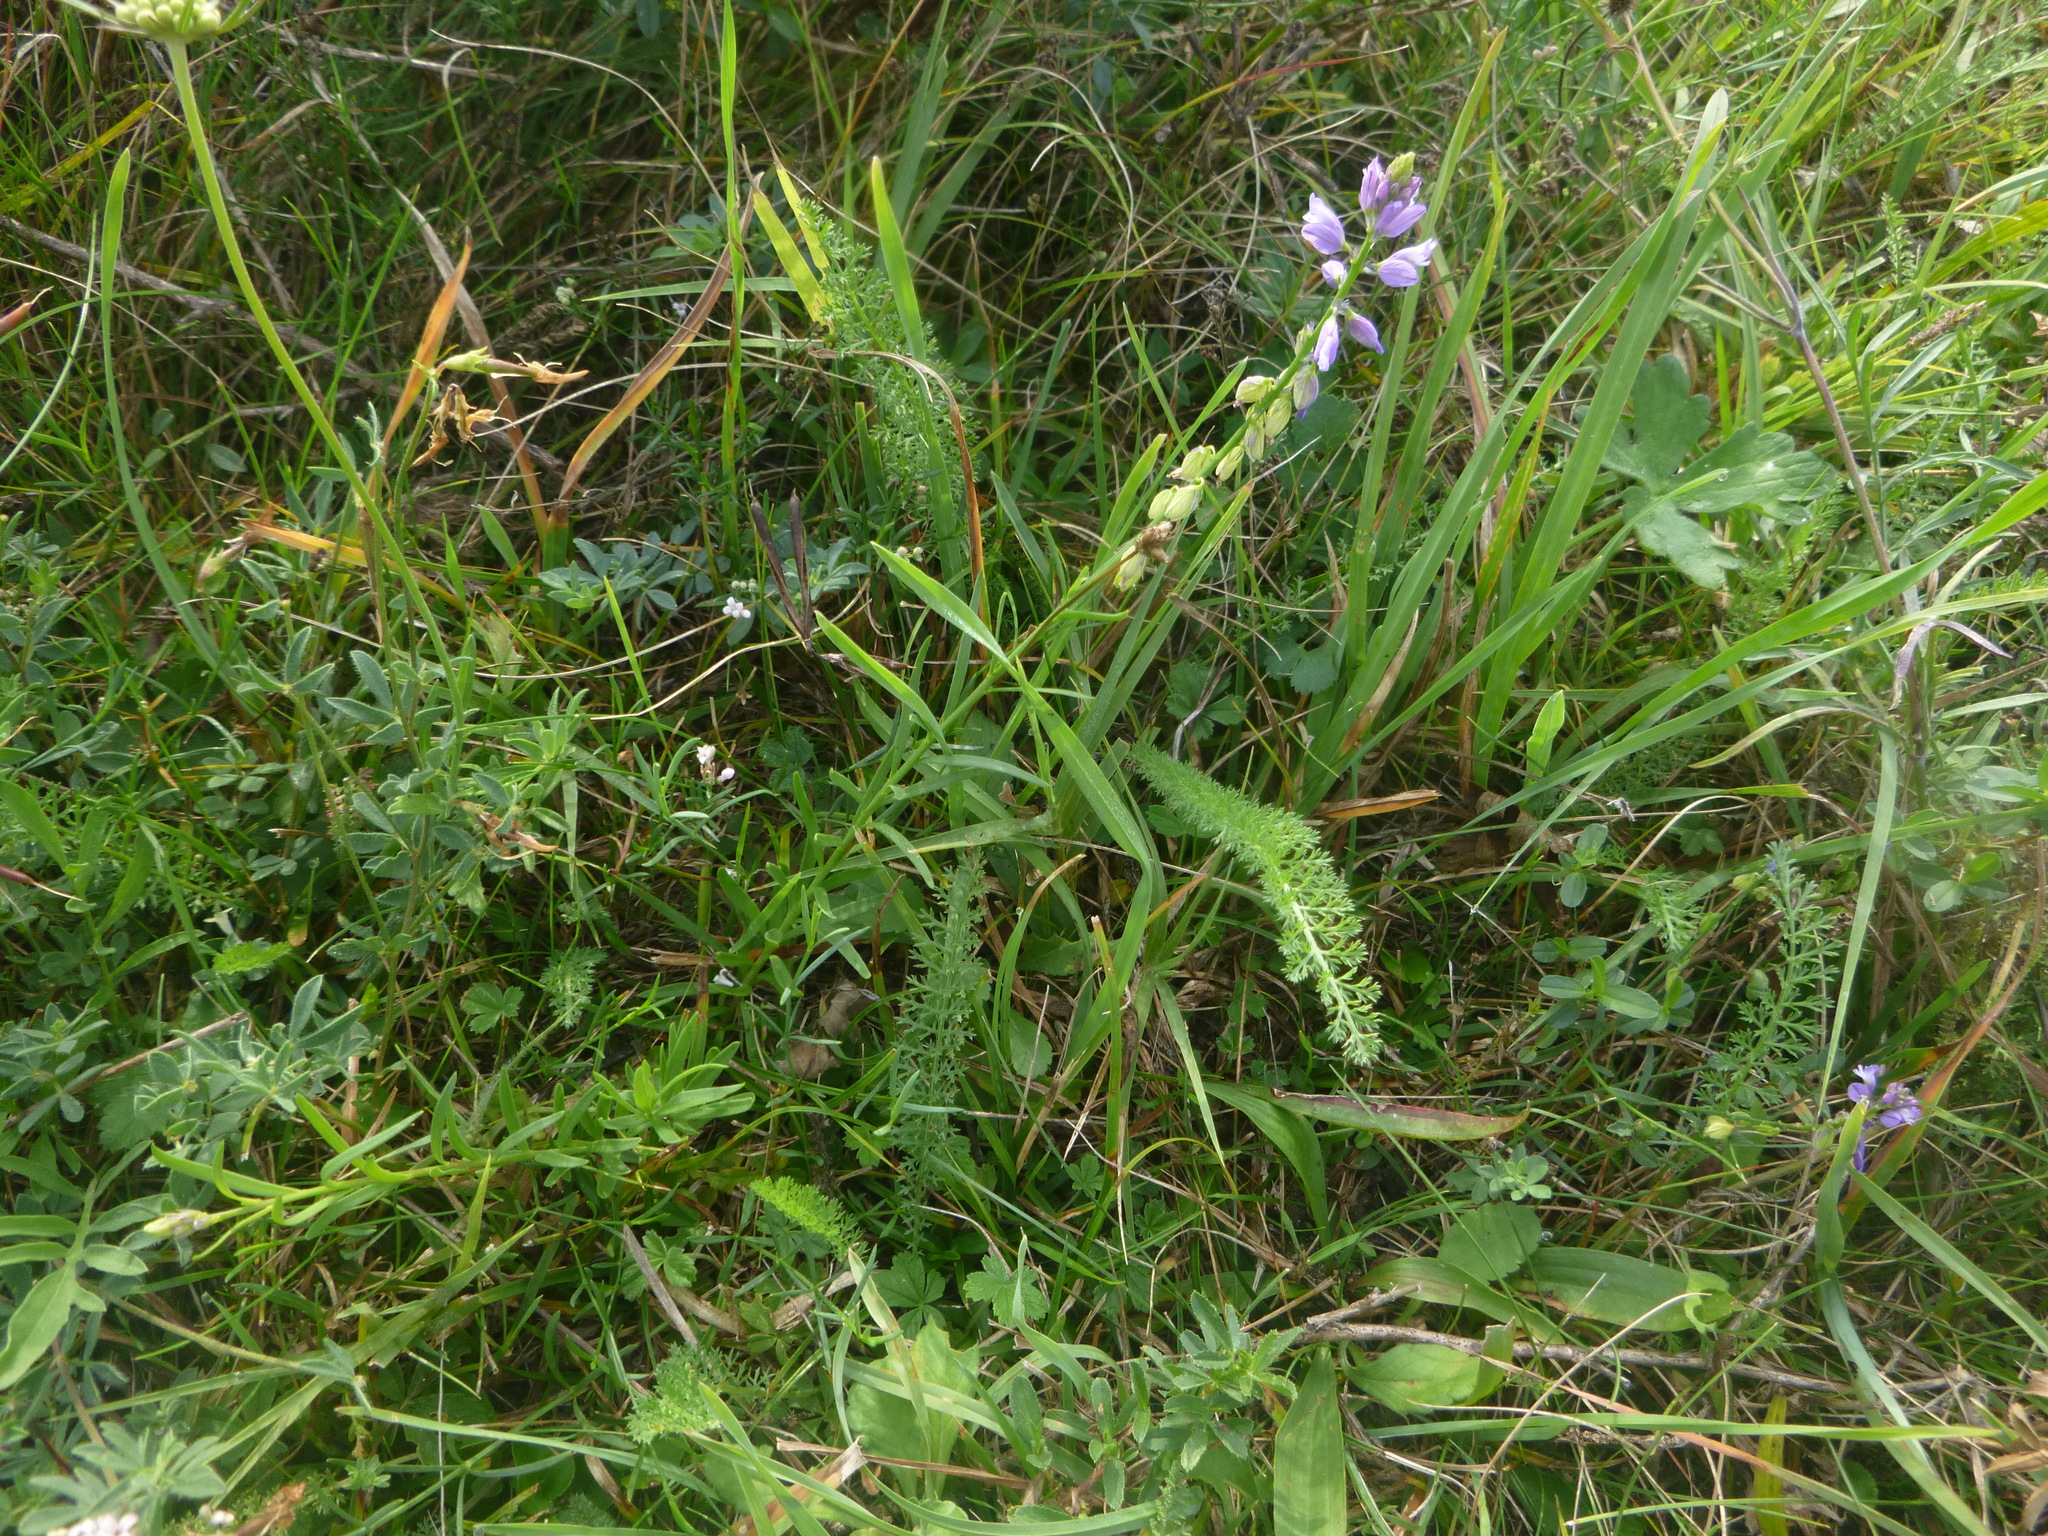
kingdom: Plantae
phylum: Tracheophyta
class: Magnoliopsida
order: Fabales
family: Polygalaceae
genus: Polygala
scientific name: Polygala comosa
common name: Tufted milkwort
